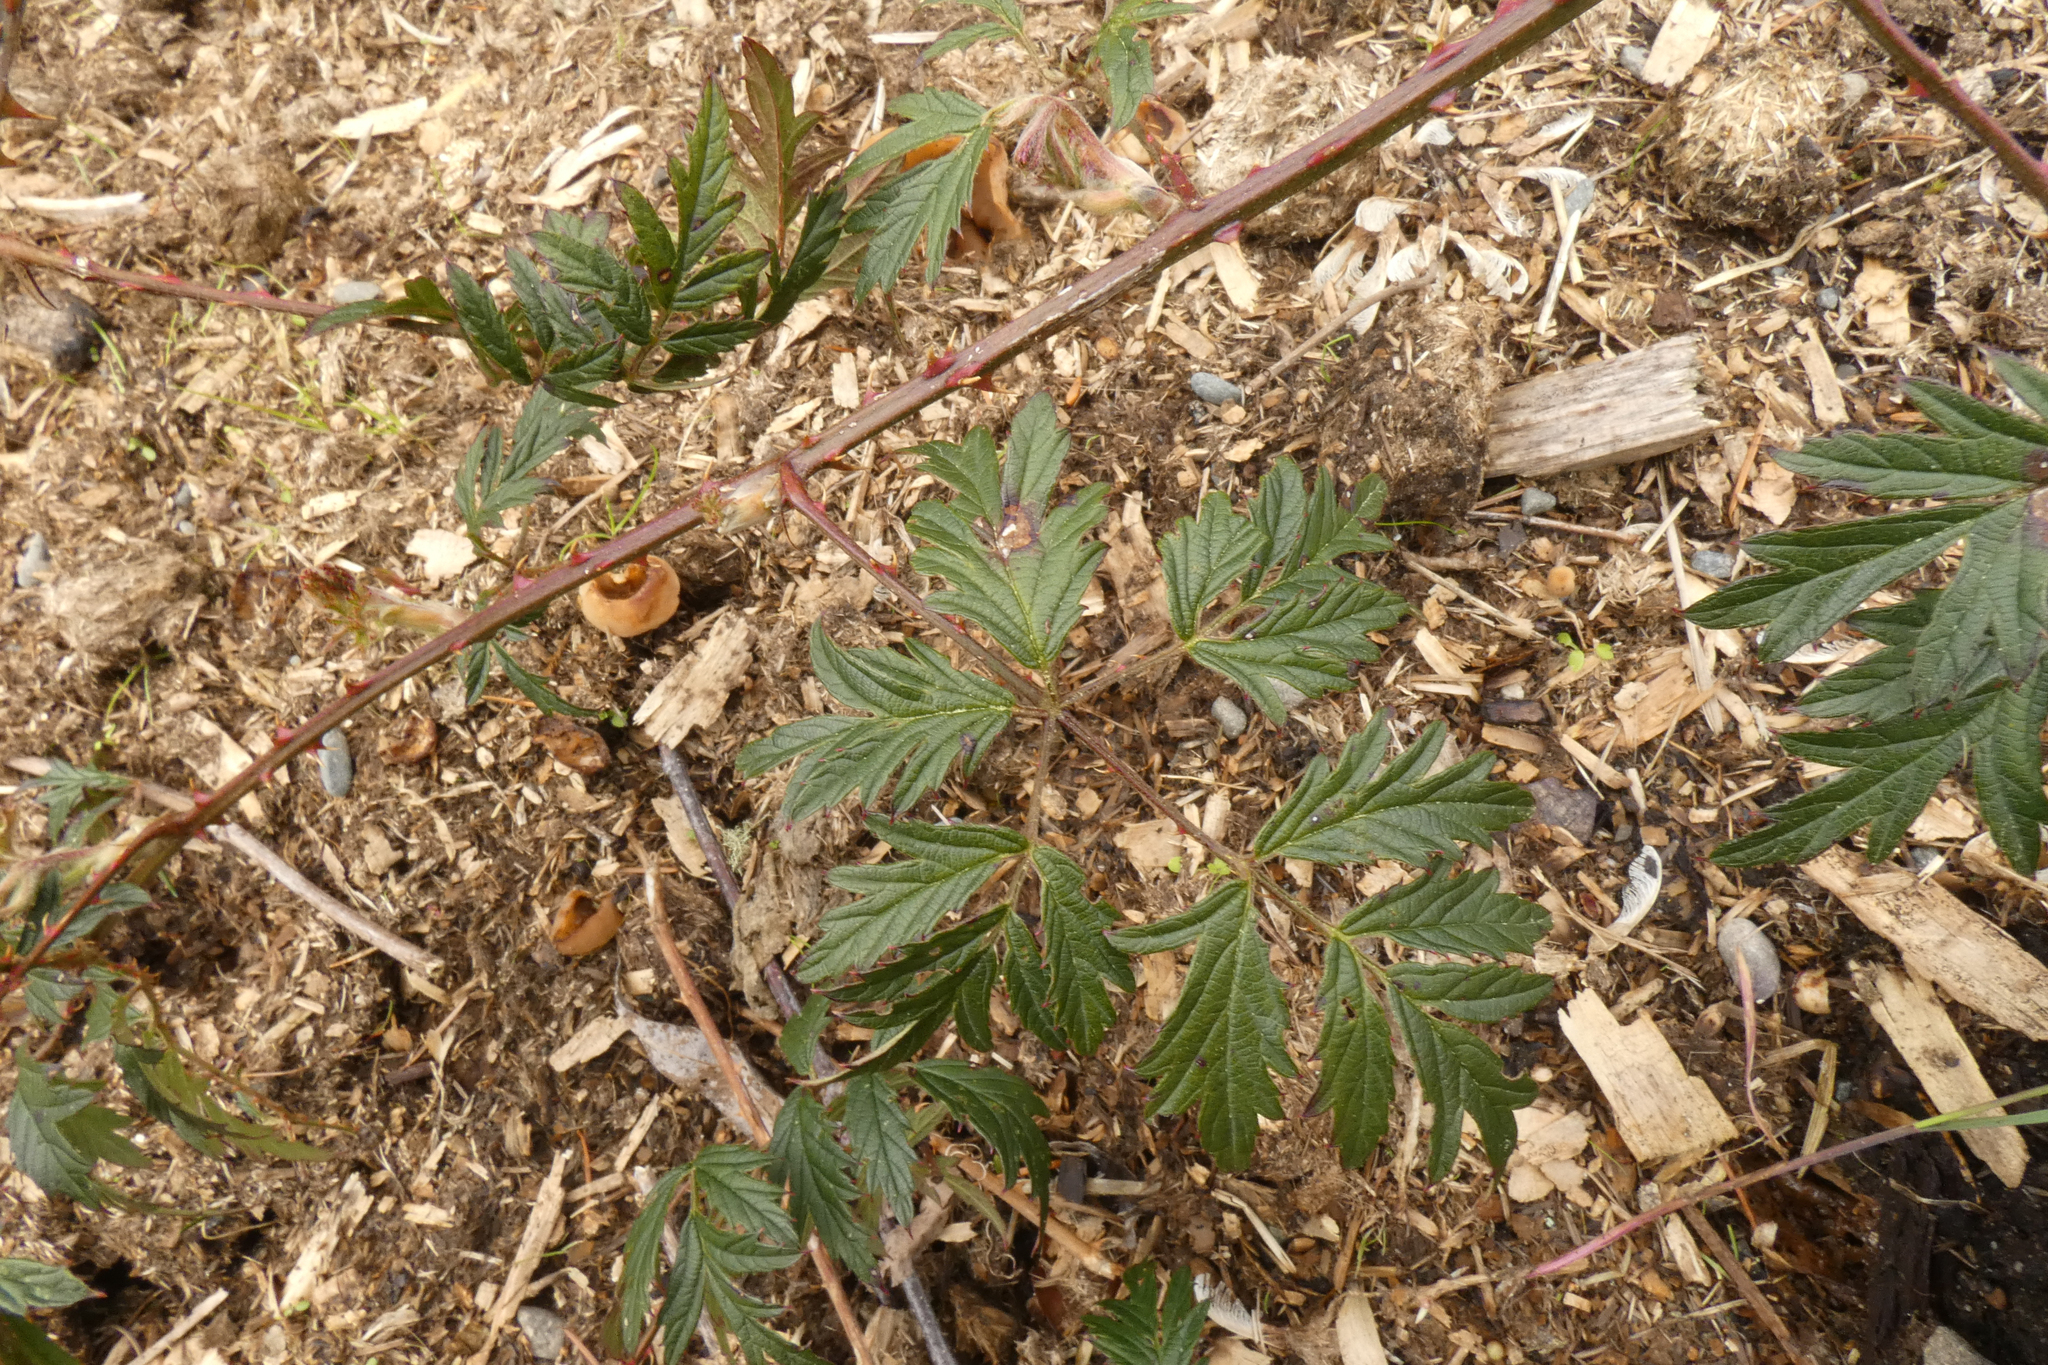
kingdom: Plantae
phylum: Tracheophyta
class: Magnoliopsida
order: Rosales
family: Rosaceae
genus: Rubus
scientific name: Rubus laciniatus
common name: Evergreen blackberry
